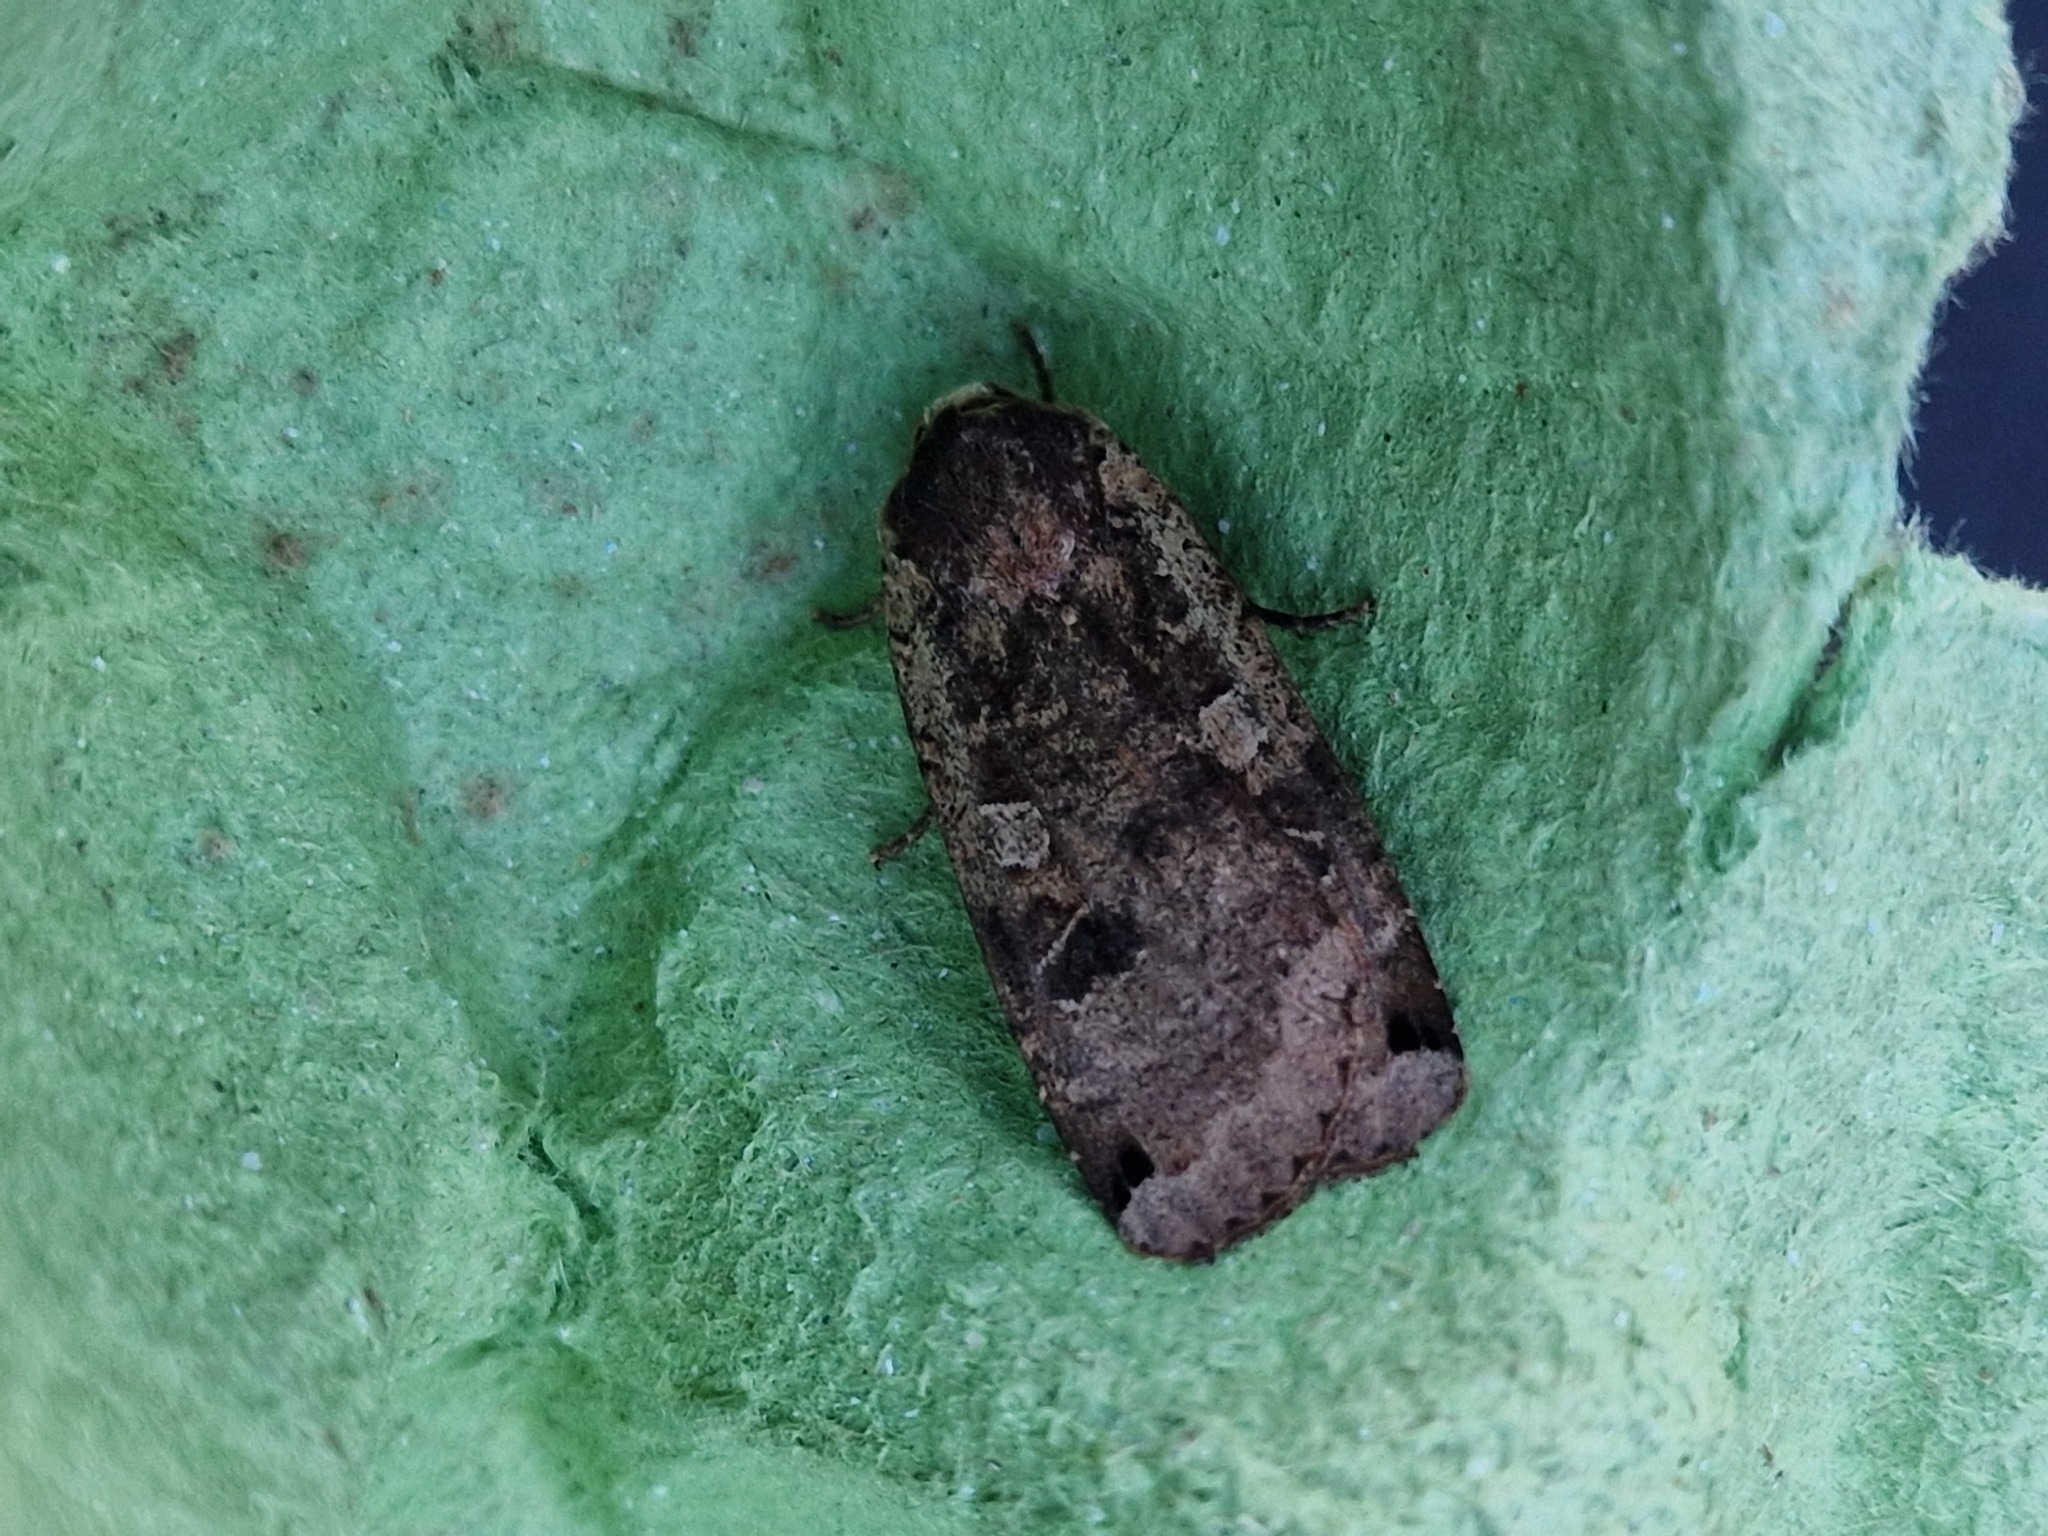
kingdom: Animalia
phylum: Arthropoda
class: Insecta
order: Lepidoptera
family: Noctuidae
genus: Noctua
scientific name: Noctua pronuba
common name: Large yellow underwing
